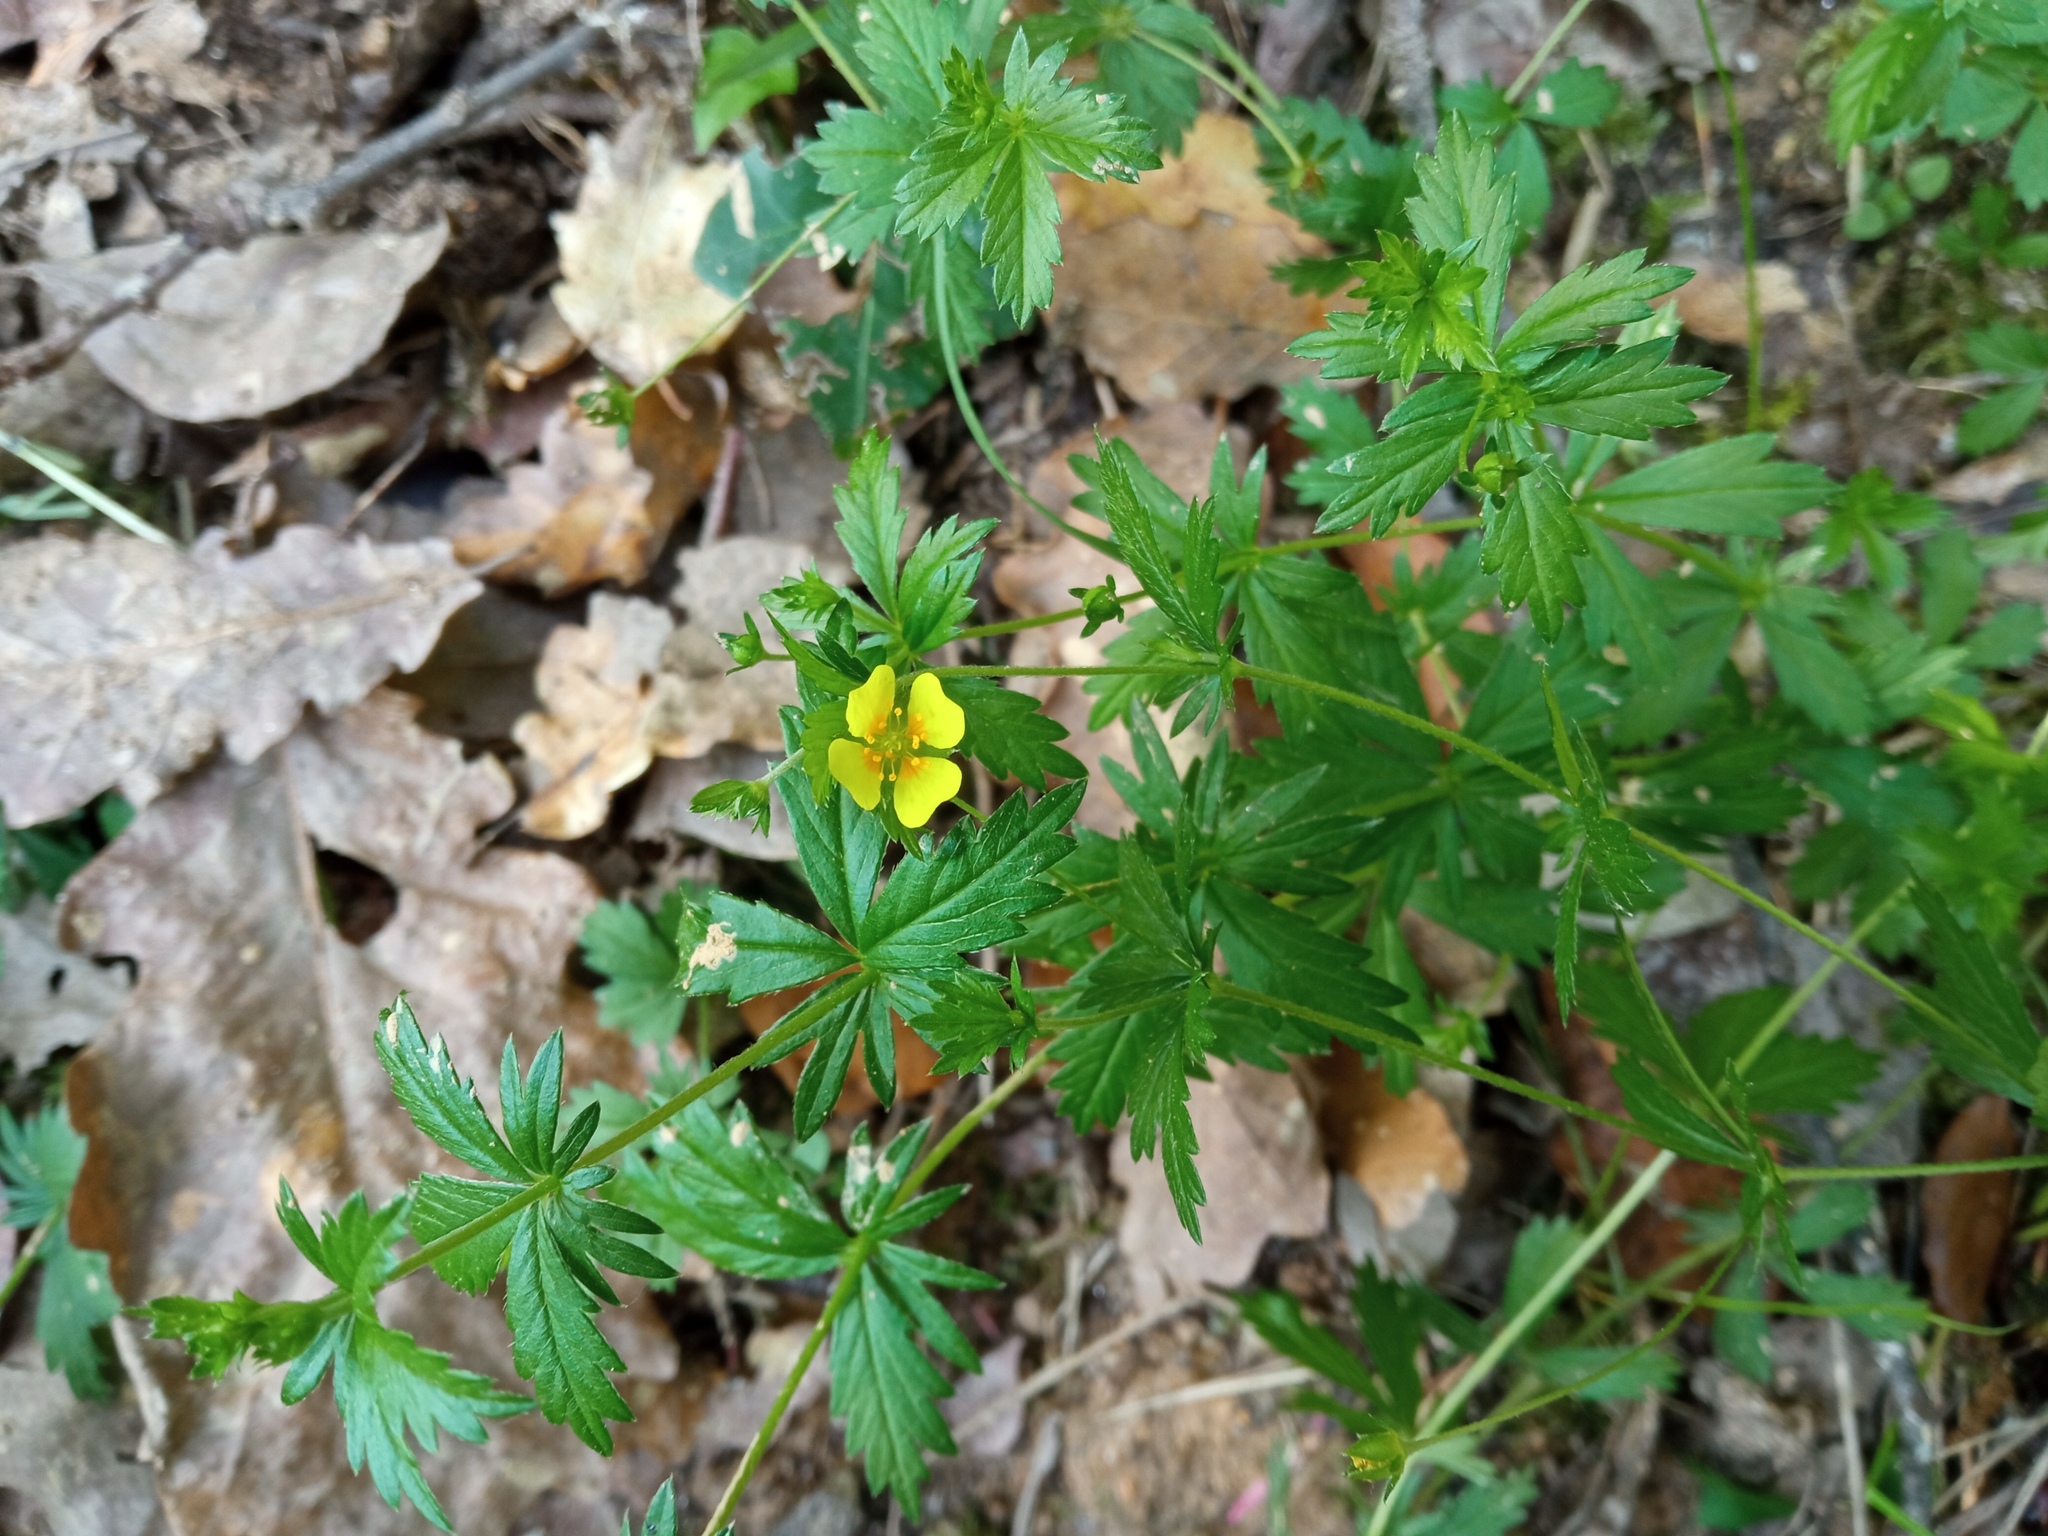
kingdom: Plantae
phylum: Tracheophyta
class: Magnoliopsida
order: Rosales
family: Rosaceae
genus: Potentilla
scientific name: Potentilla erecta
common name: Tormentil
